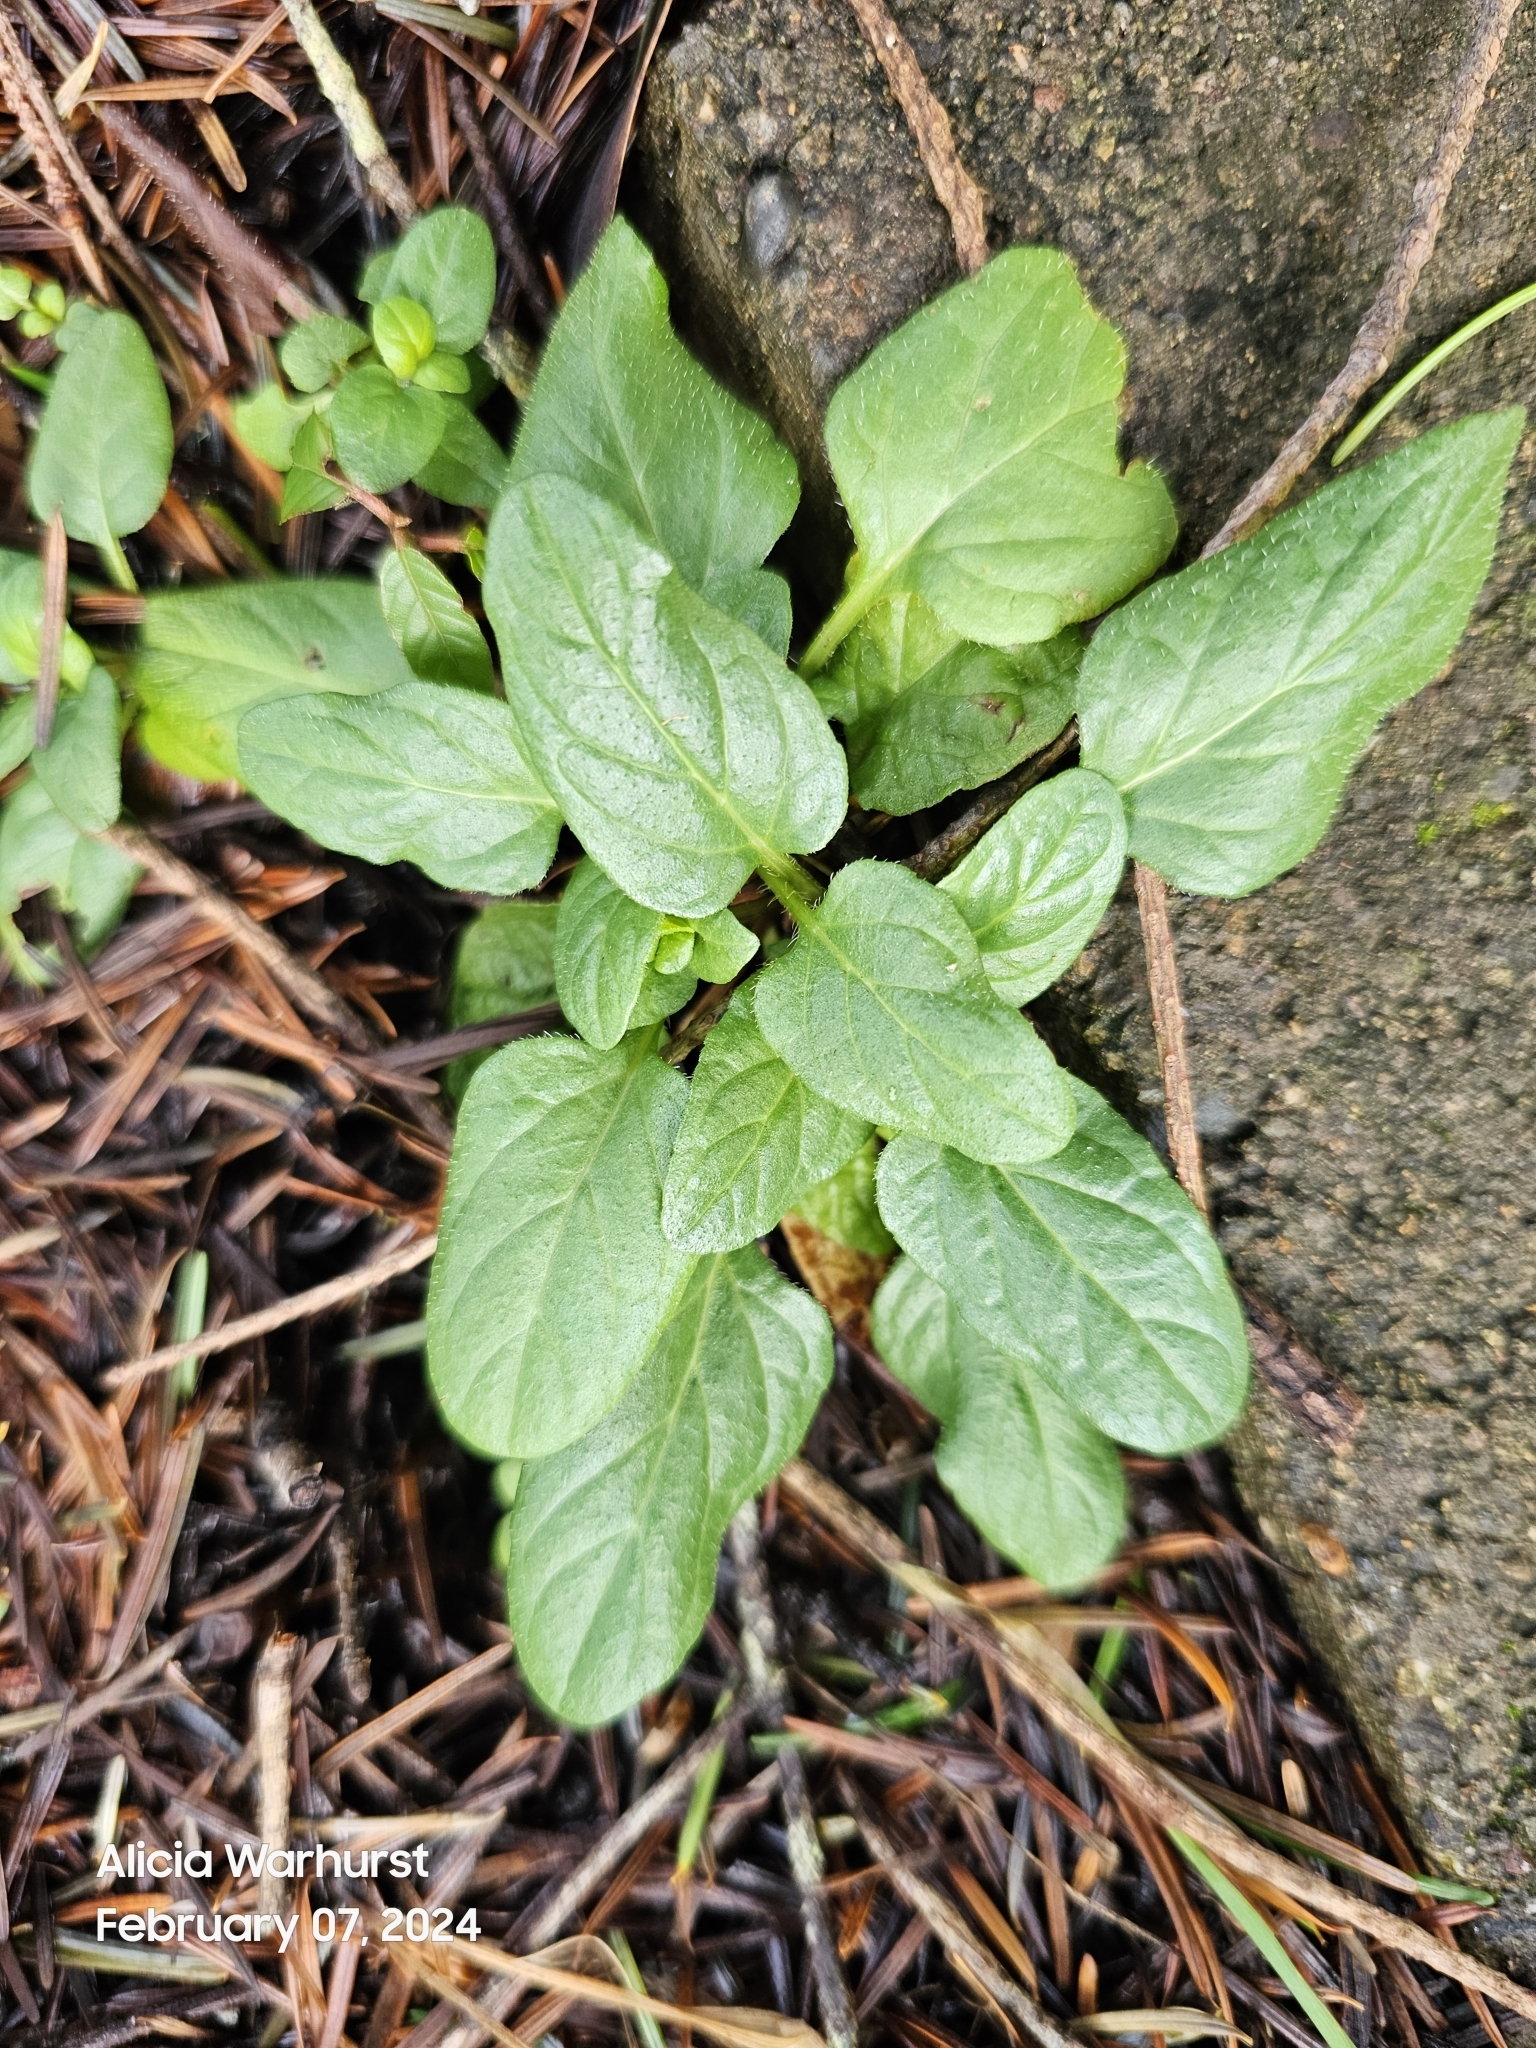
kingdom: Plantae
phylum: Tracheophyta
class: Magnoliopsida
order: Lamiales
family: Lamiaceae
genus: Prunella
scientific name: Prunella vulgaris
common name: Heal-all
